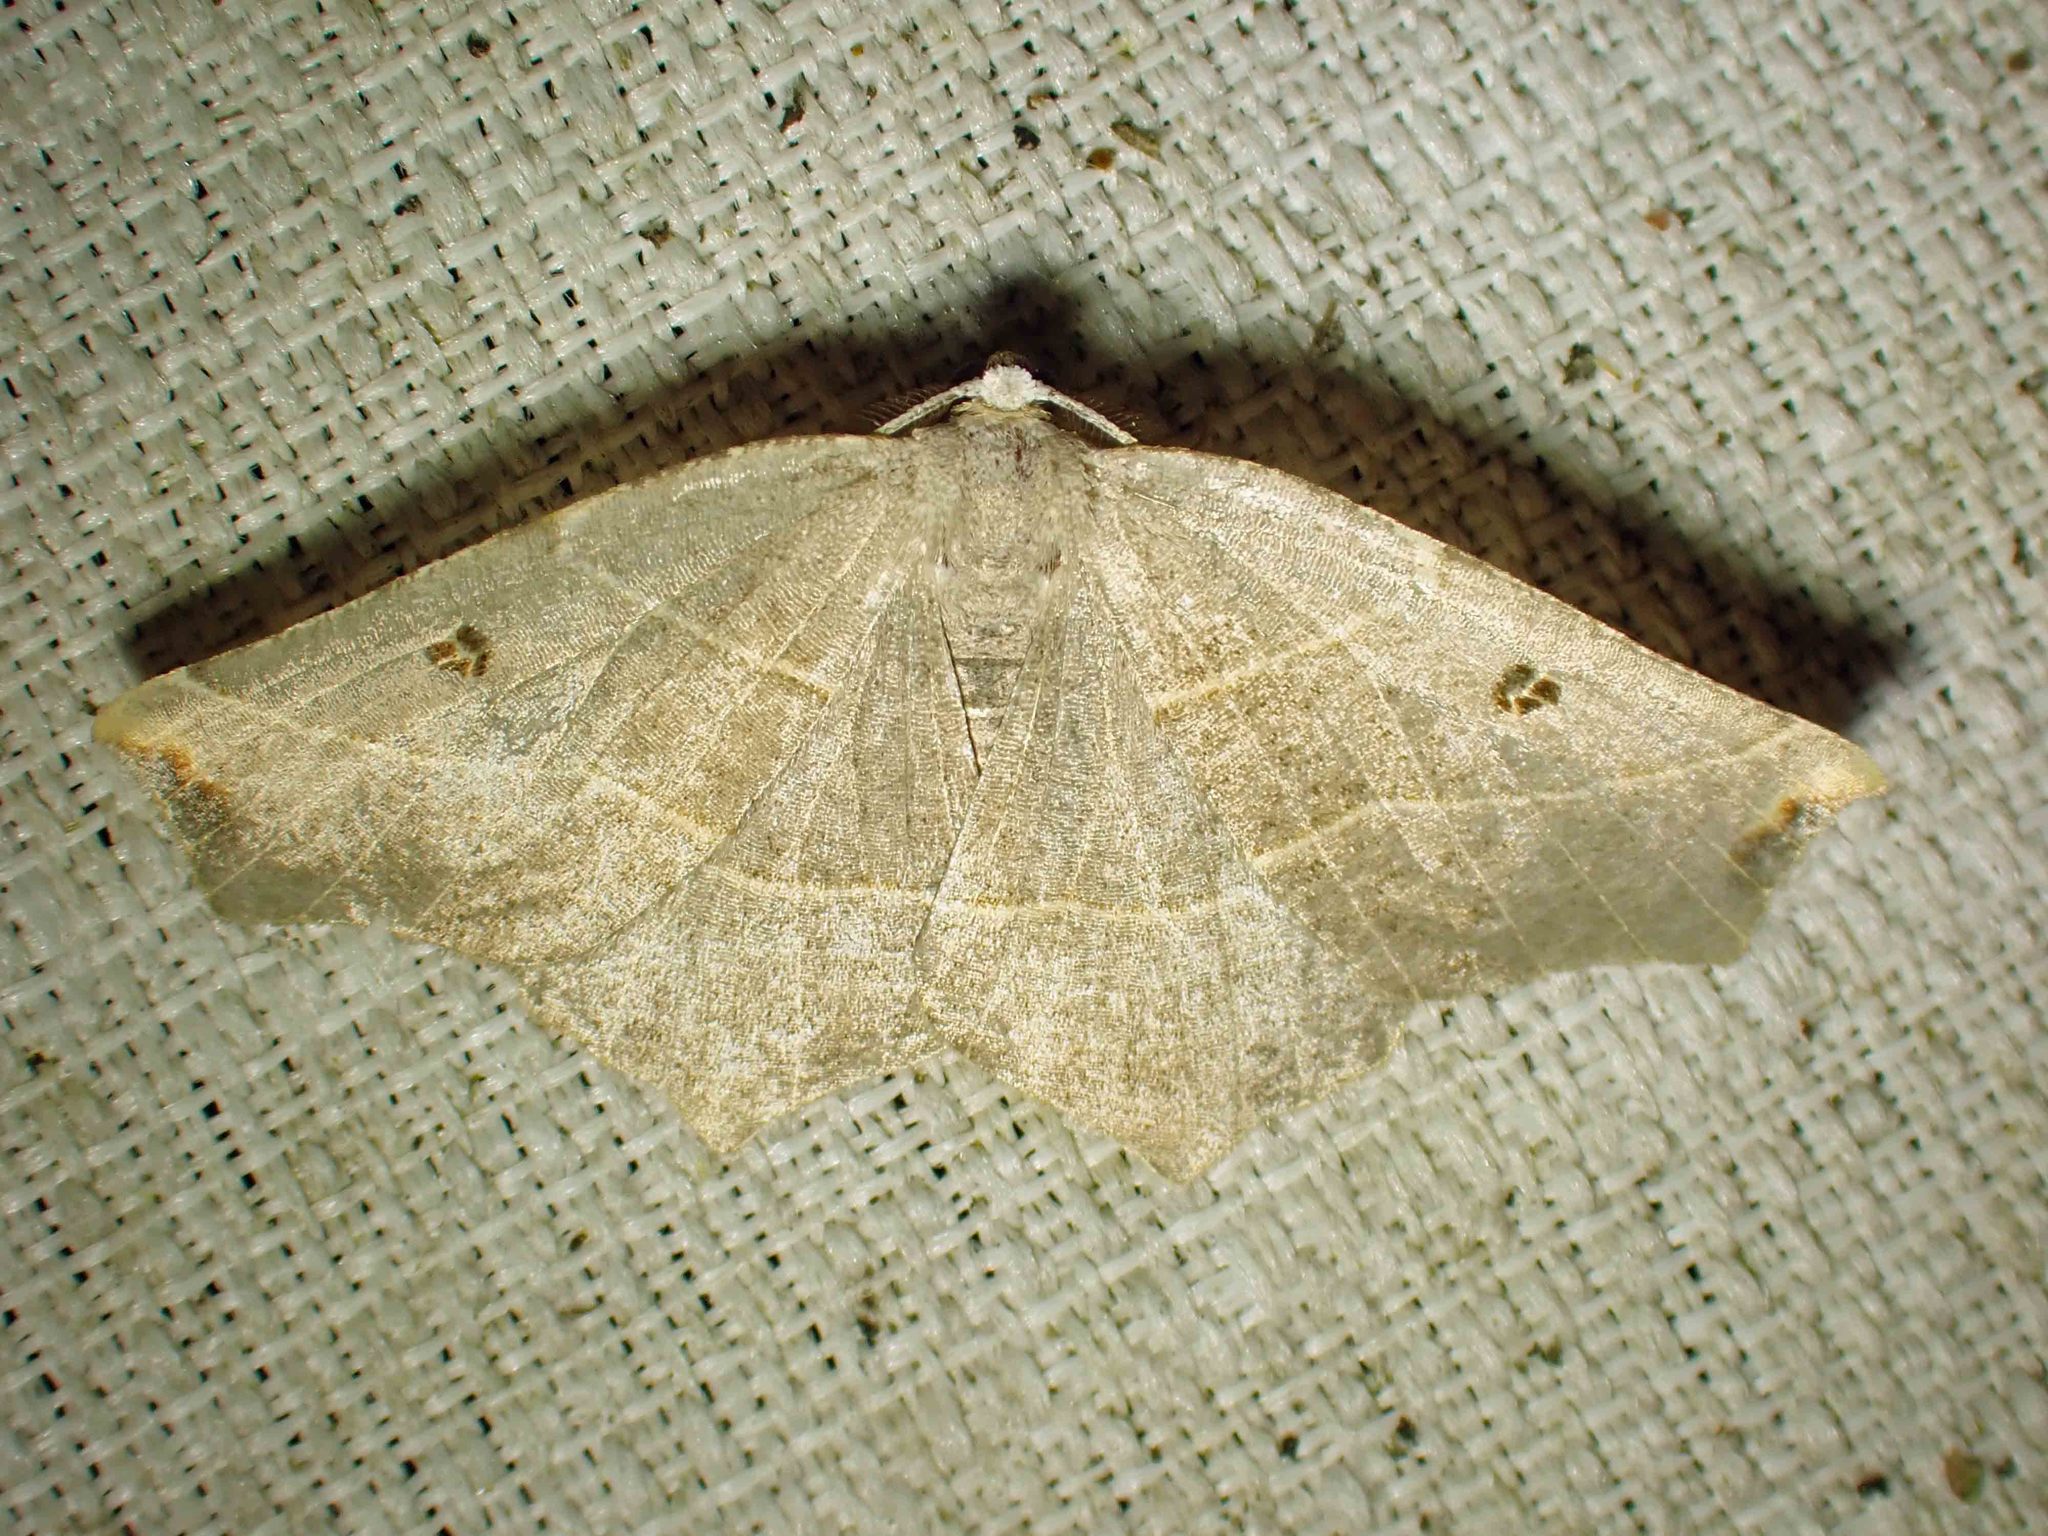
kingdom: Animalia
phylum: Arthropoda
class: Insecta
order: Lepidoptera
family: Geometridae
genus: Metanema
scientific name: Metanema inatomaria
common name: Pale metanema
